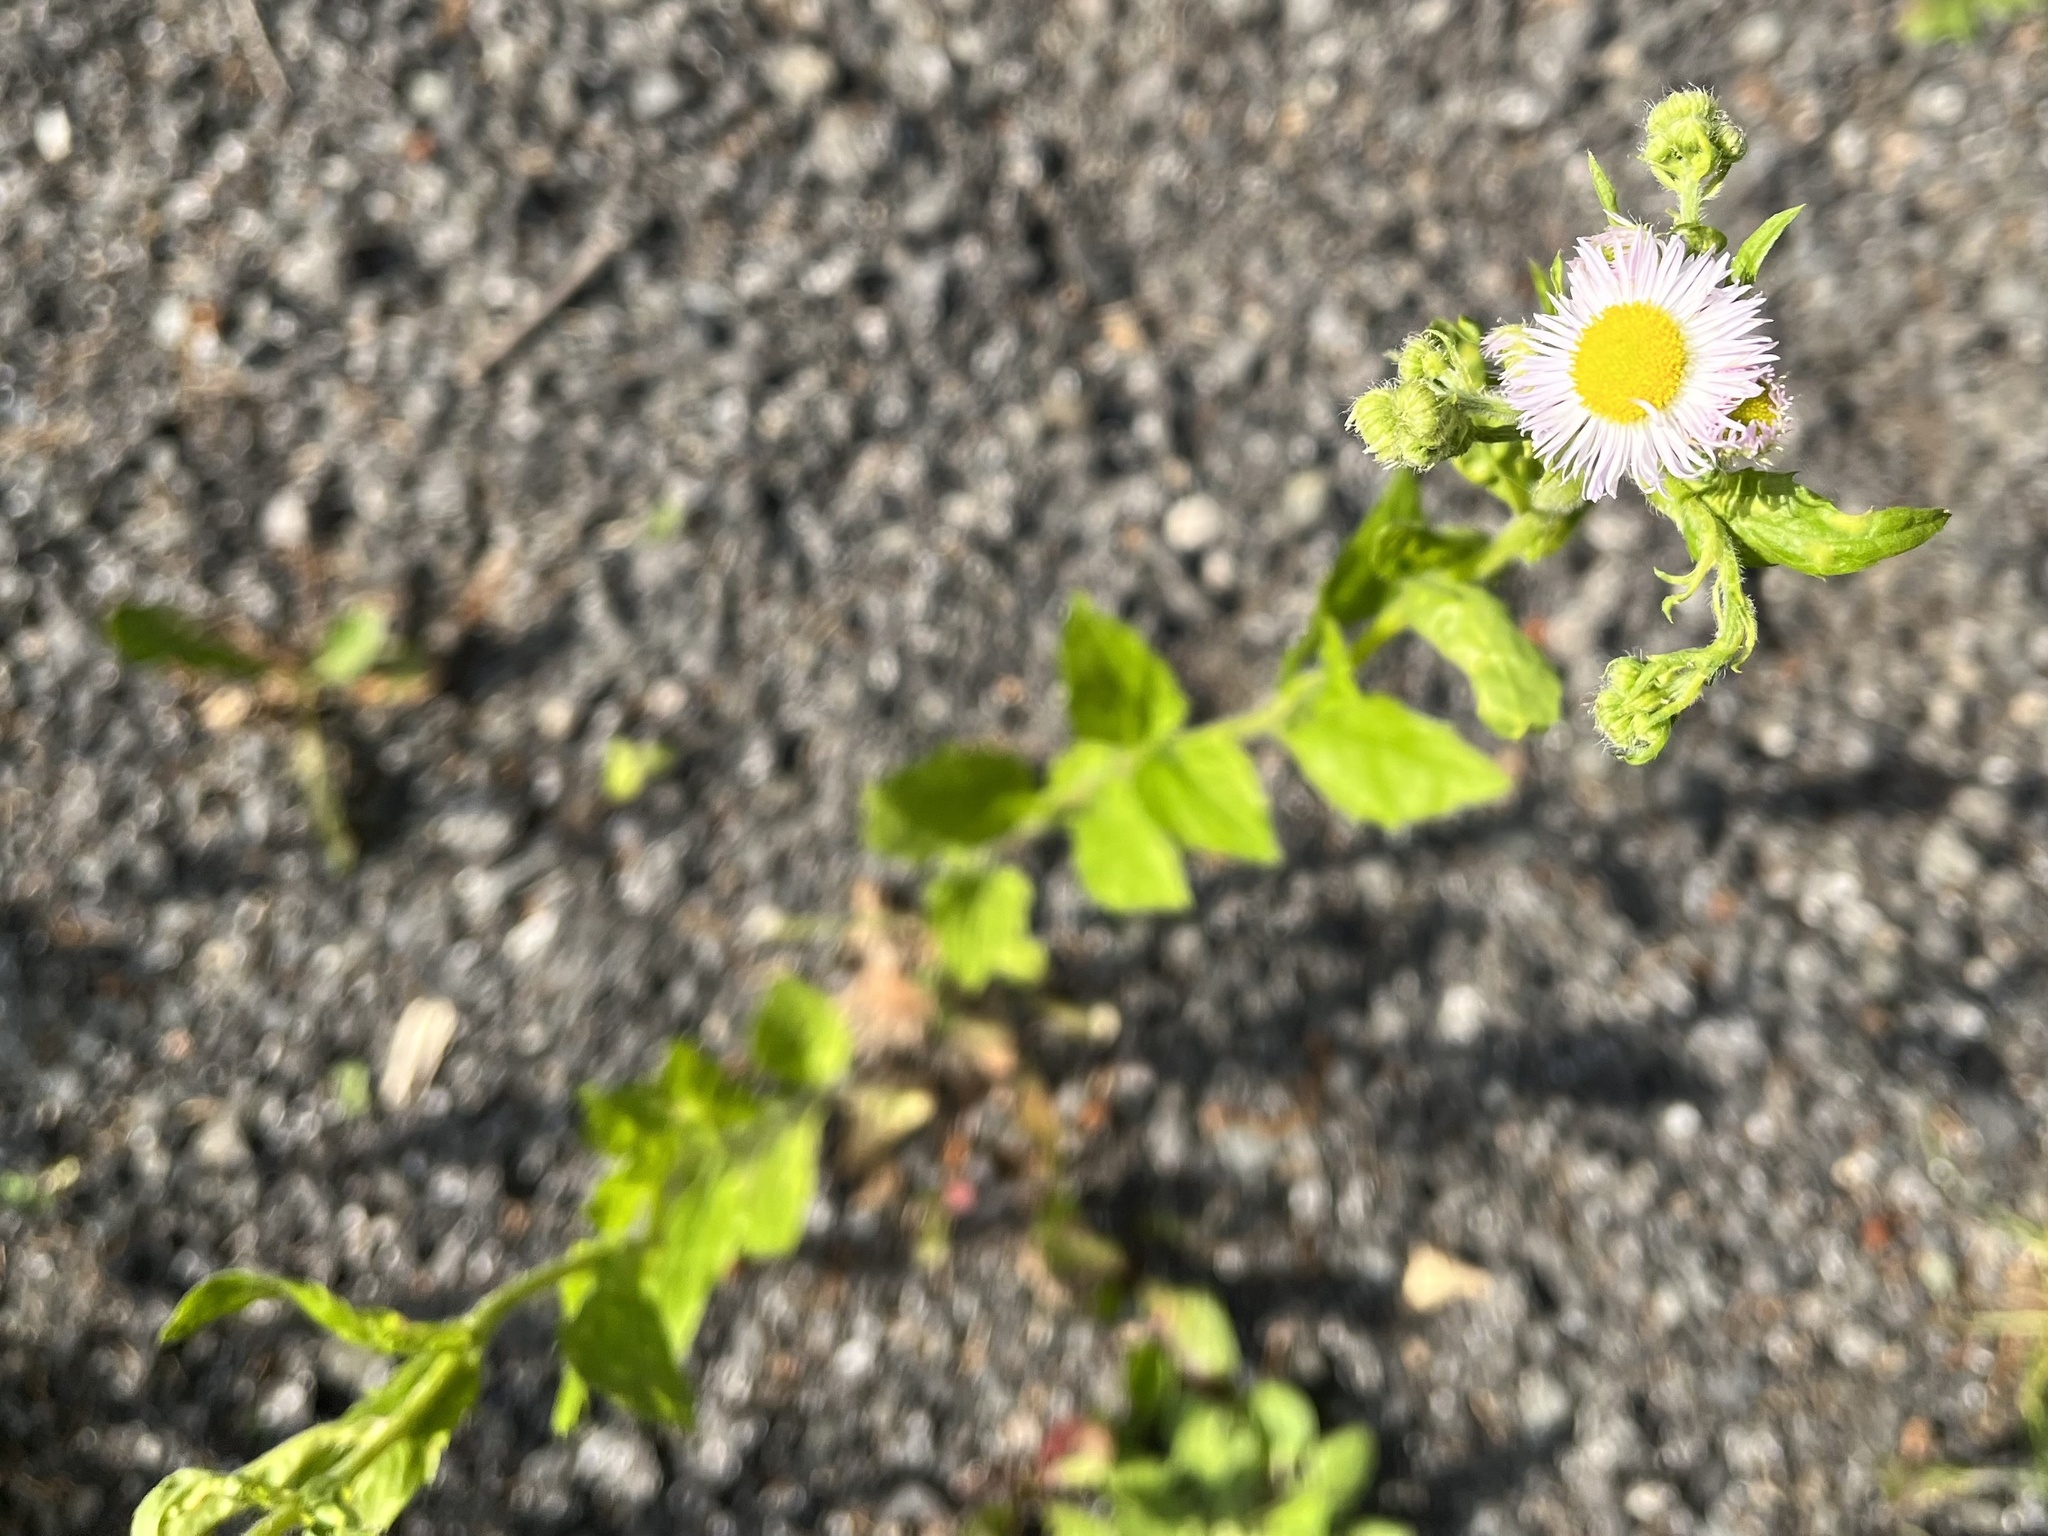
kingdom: Plantae
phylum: Tracheophyta
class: Magnoliopsida
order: Asterales
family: Asteraceae
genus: Erigeron
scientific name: Erigeron annuus
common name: Tall fleabane
